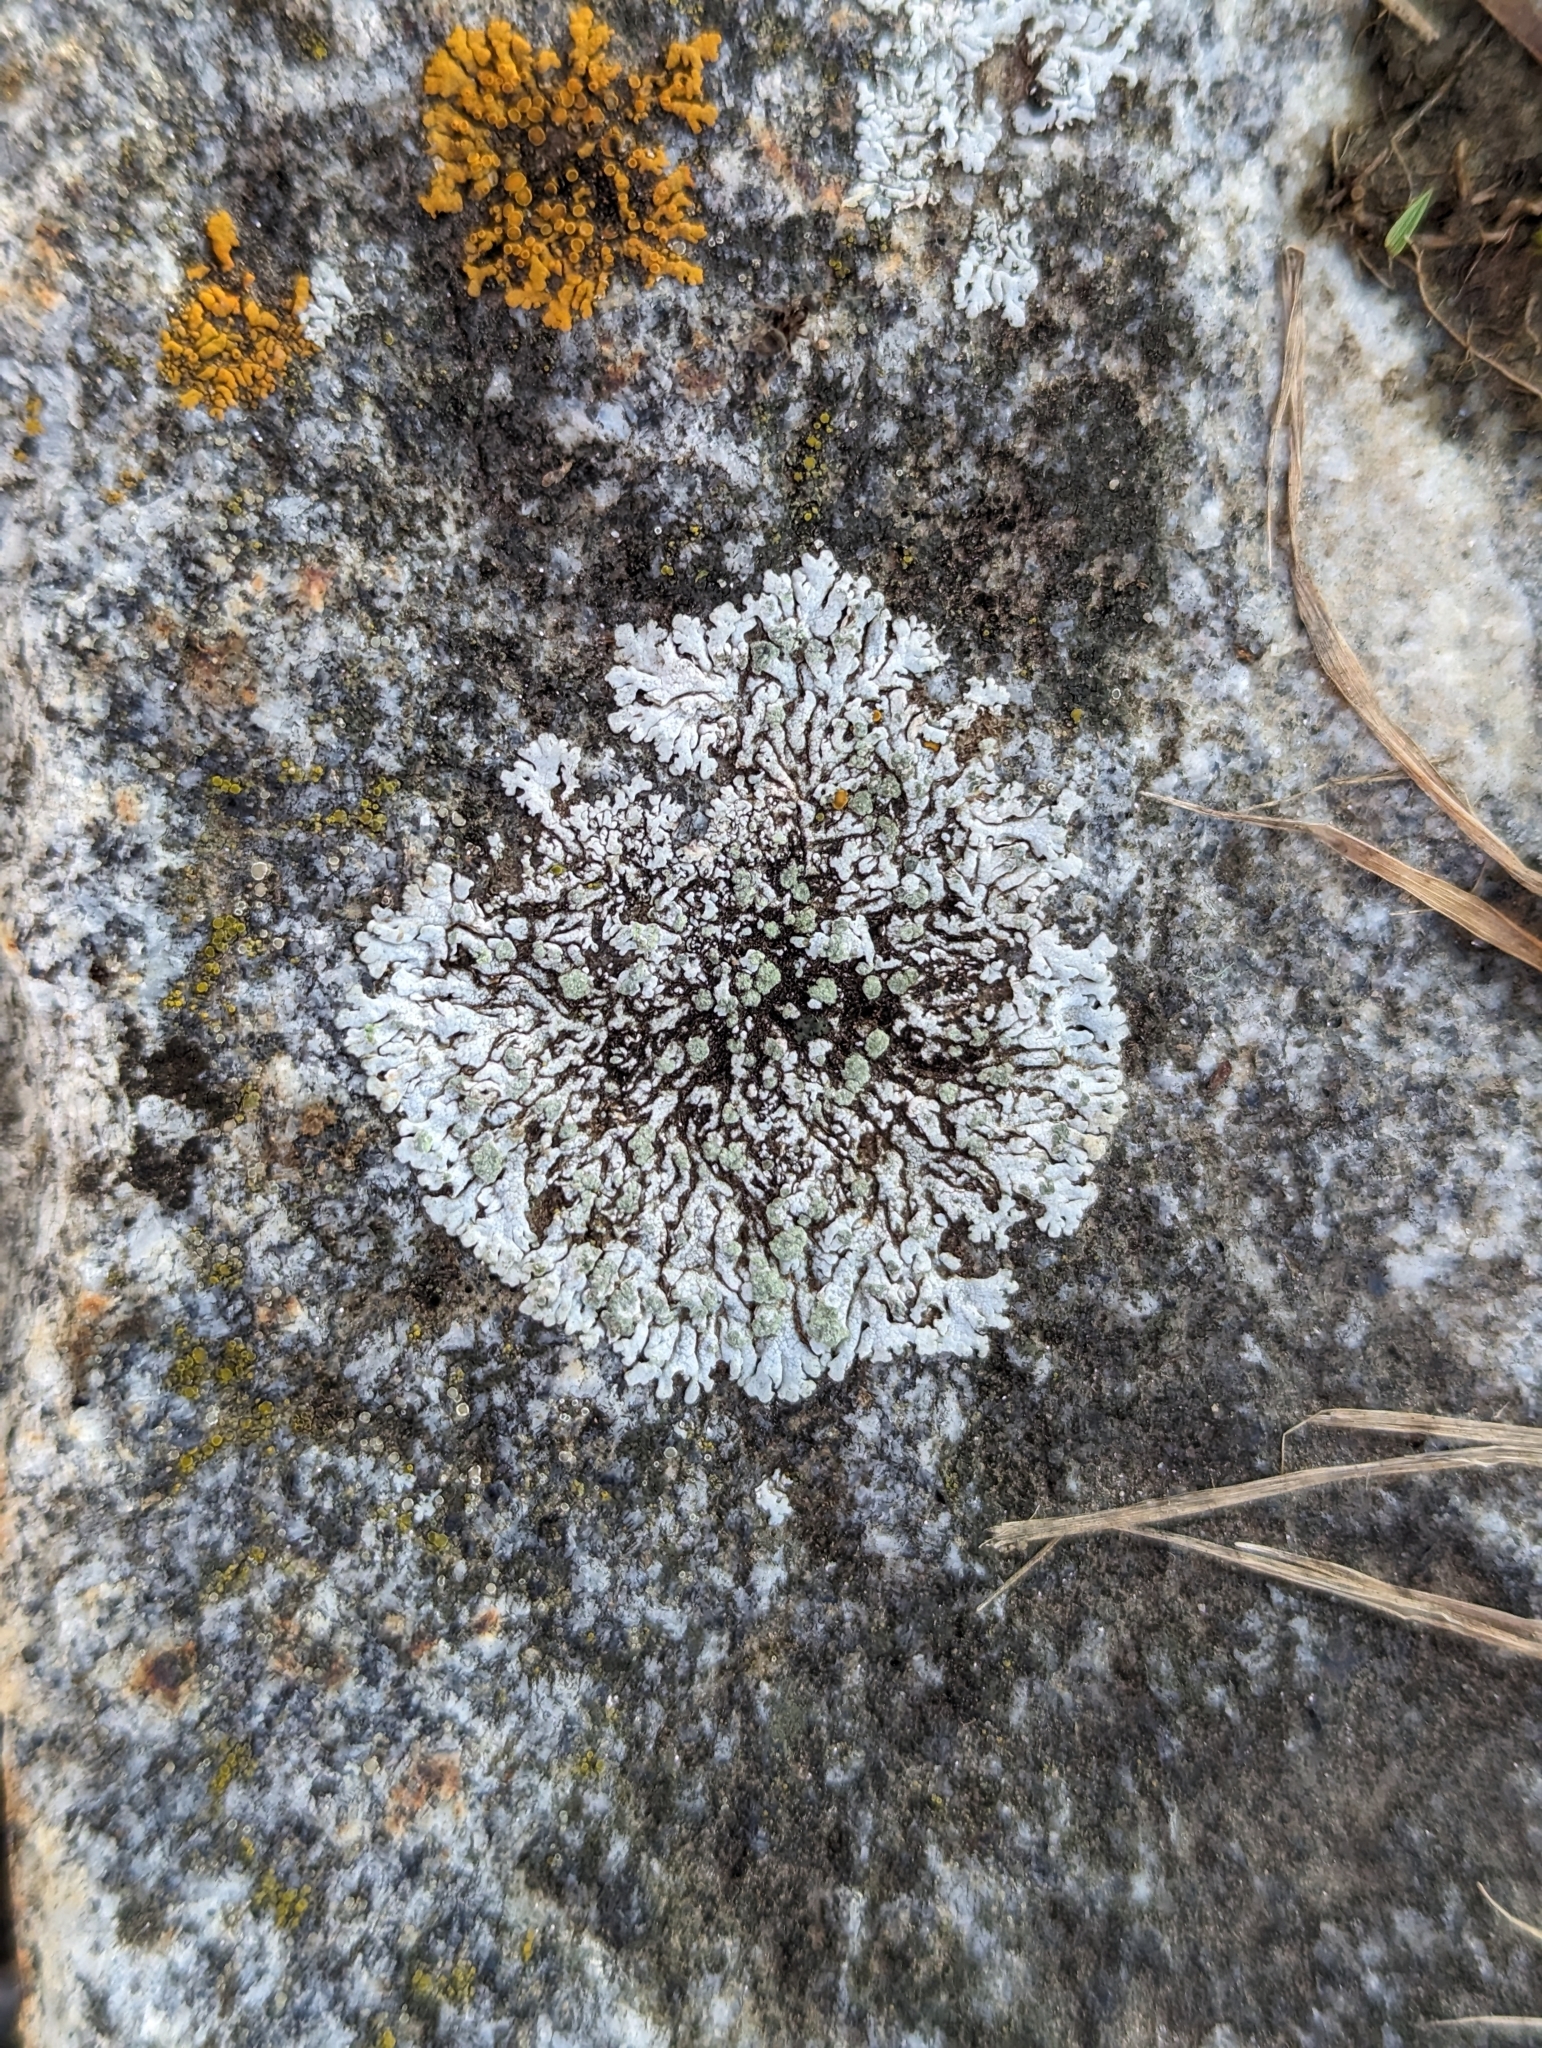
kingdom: Fungi
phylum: Ascomycota
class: Lecanoromycetes
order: Caliciales
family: Physciaceae
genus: Physcia
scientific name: Physcia caesia
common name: Blue-gray rosette lichen
